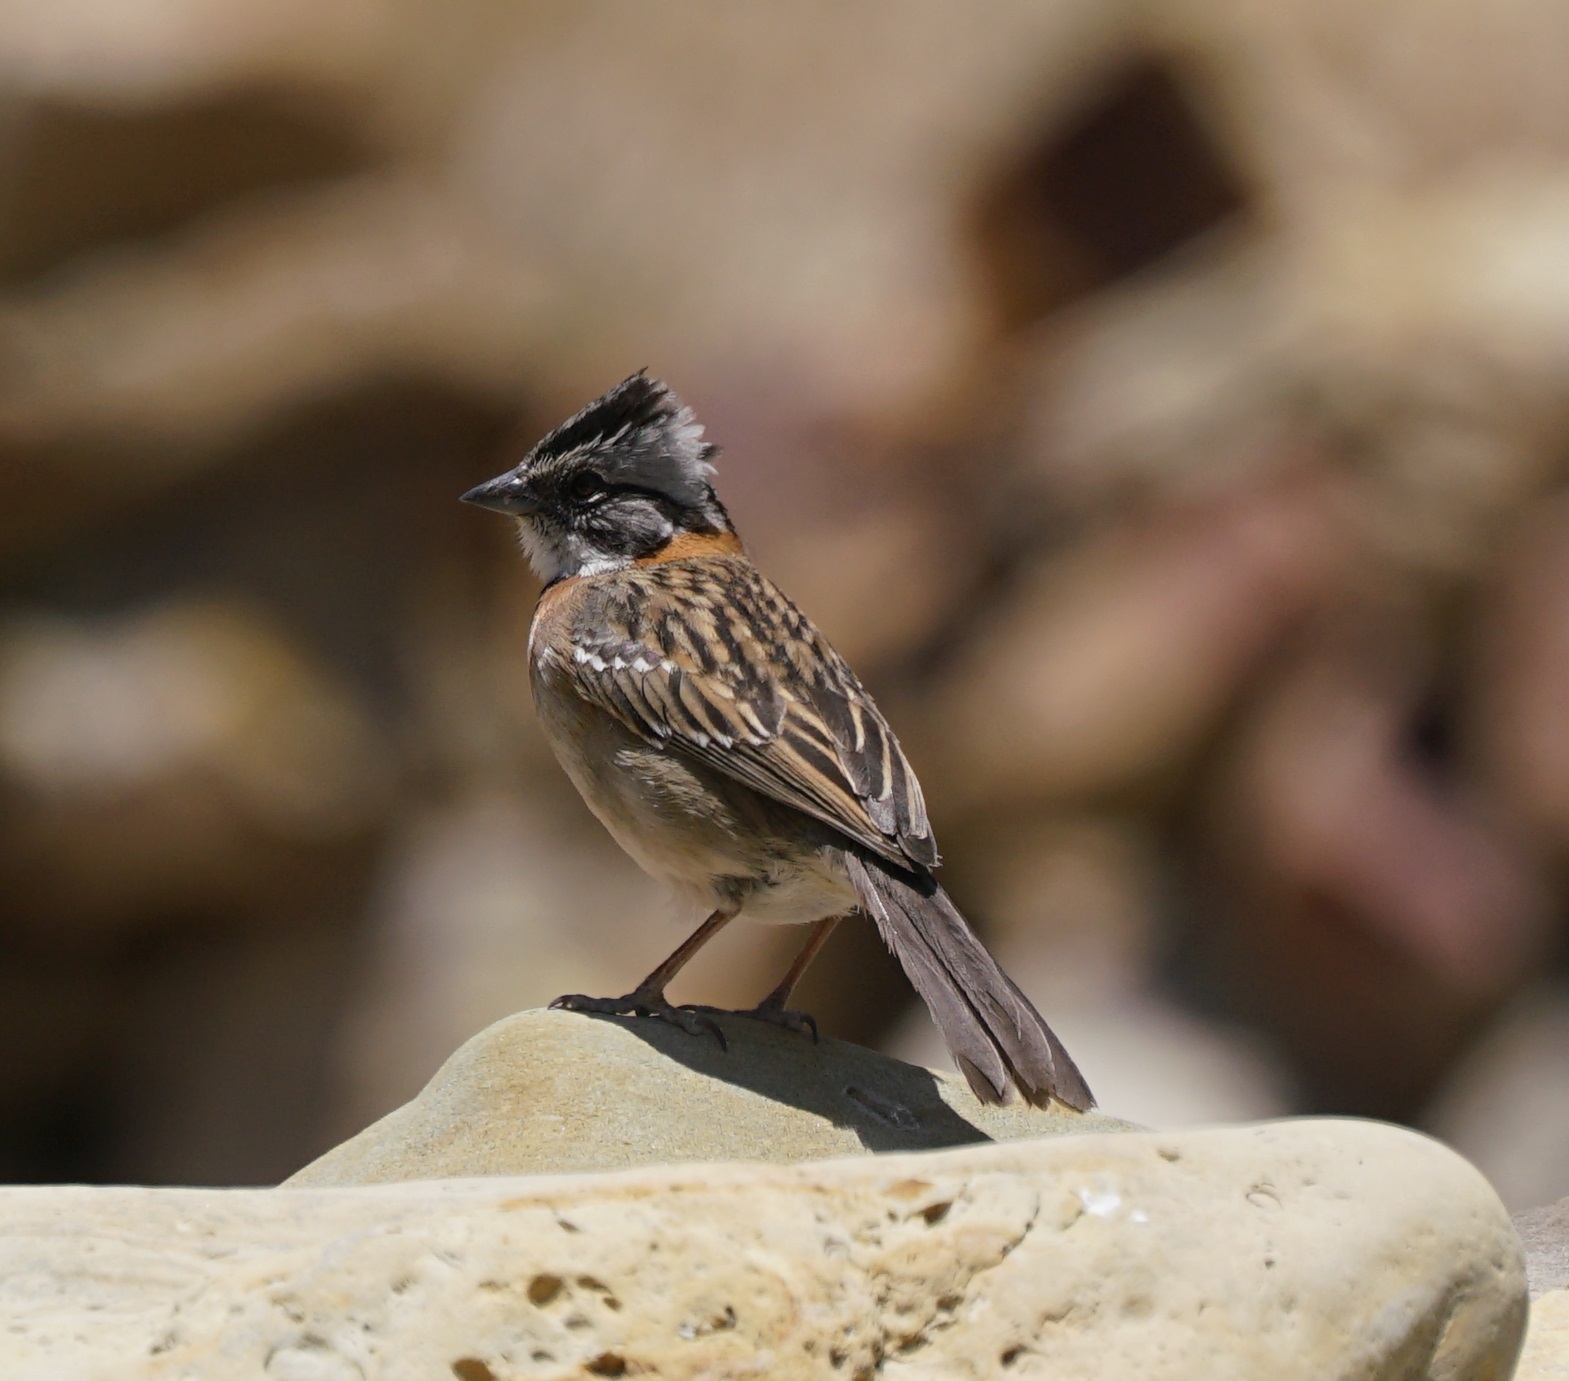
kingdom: Animalia
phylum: Chordata
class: Aves
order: Passeriformes
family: Passerellidae
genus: Zonotrichia
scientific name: Zonotrichia capensis
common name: Rufous-collared sparrow
